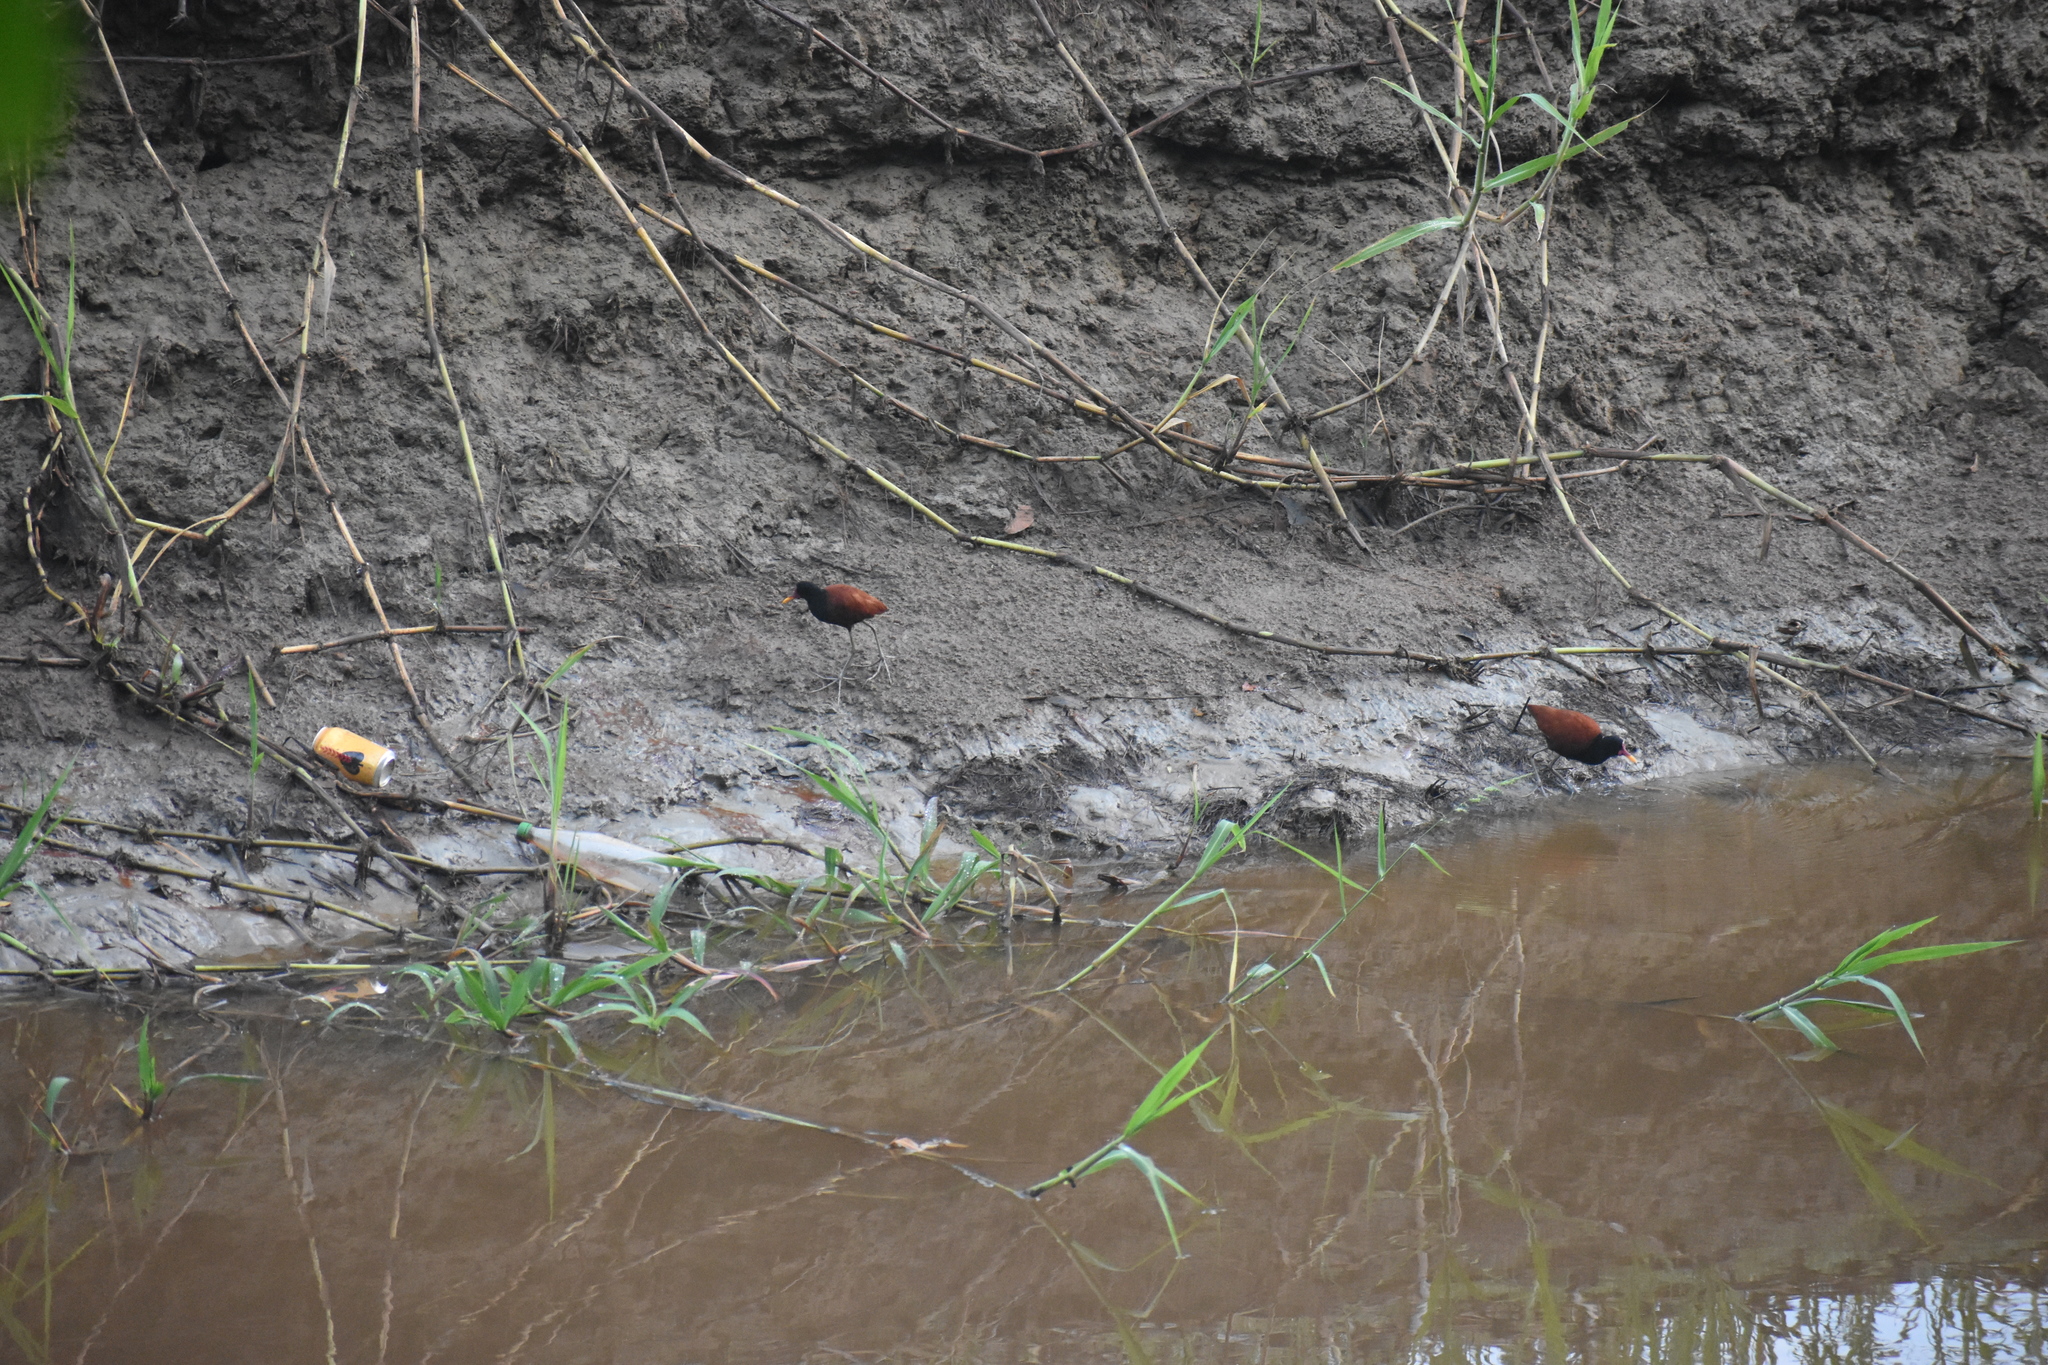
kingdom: Animalia
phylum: Chordata
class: Aves
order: Charadriiformes
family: Jacanidae
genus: Jacana
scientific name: Jacana jacana
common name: Wattled jacana
